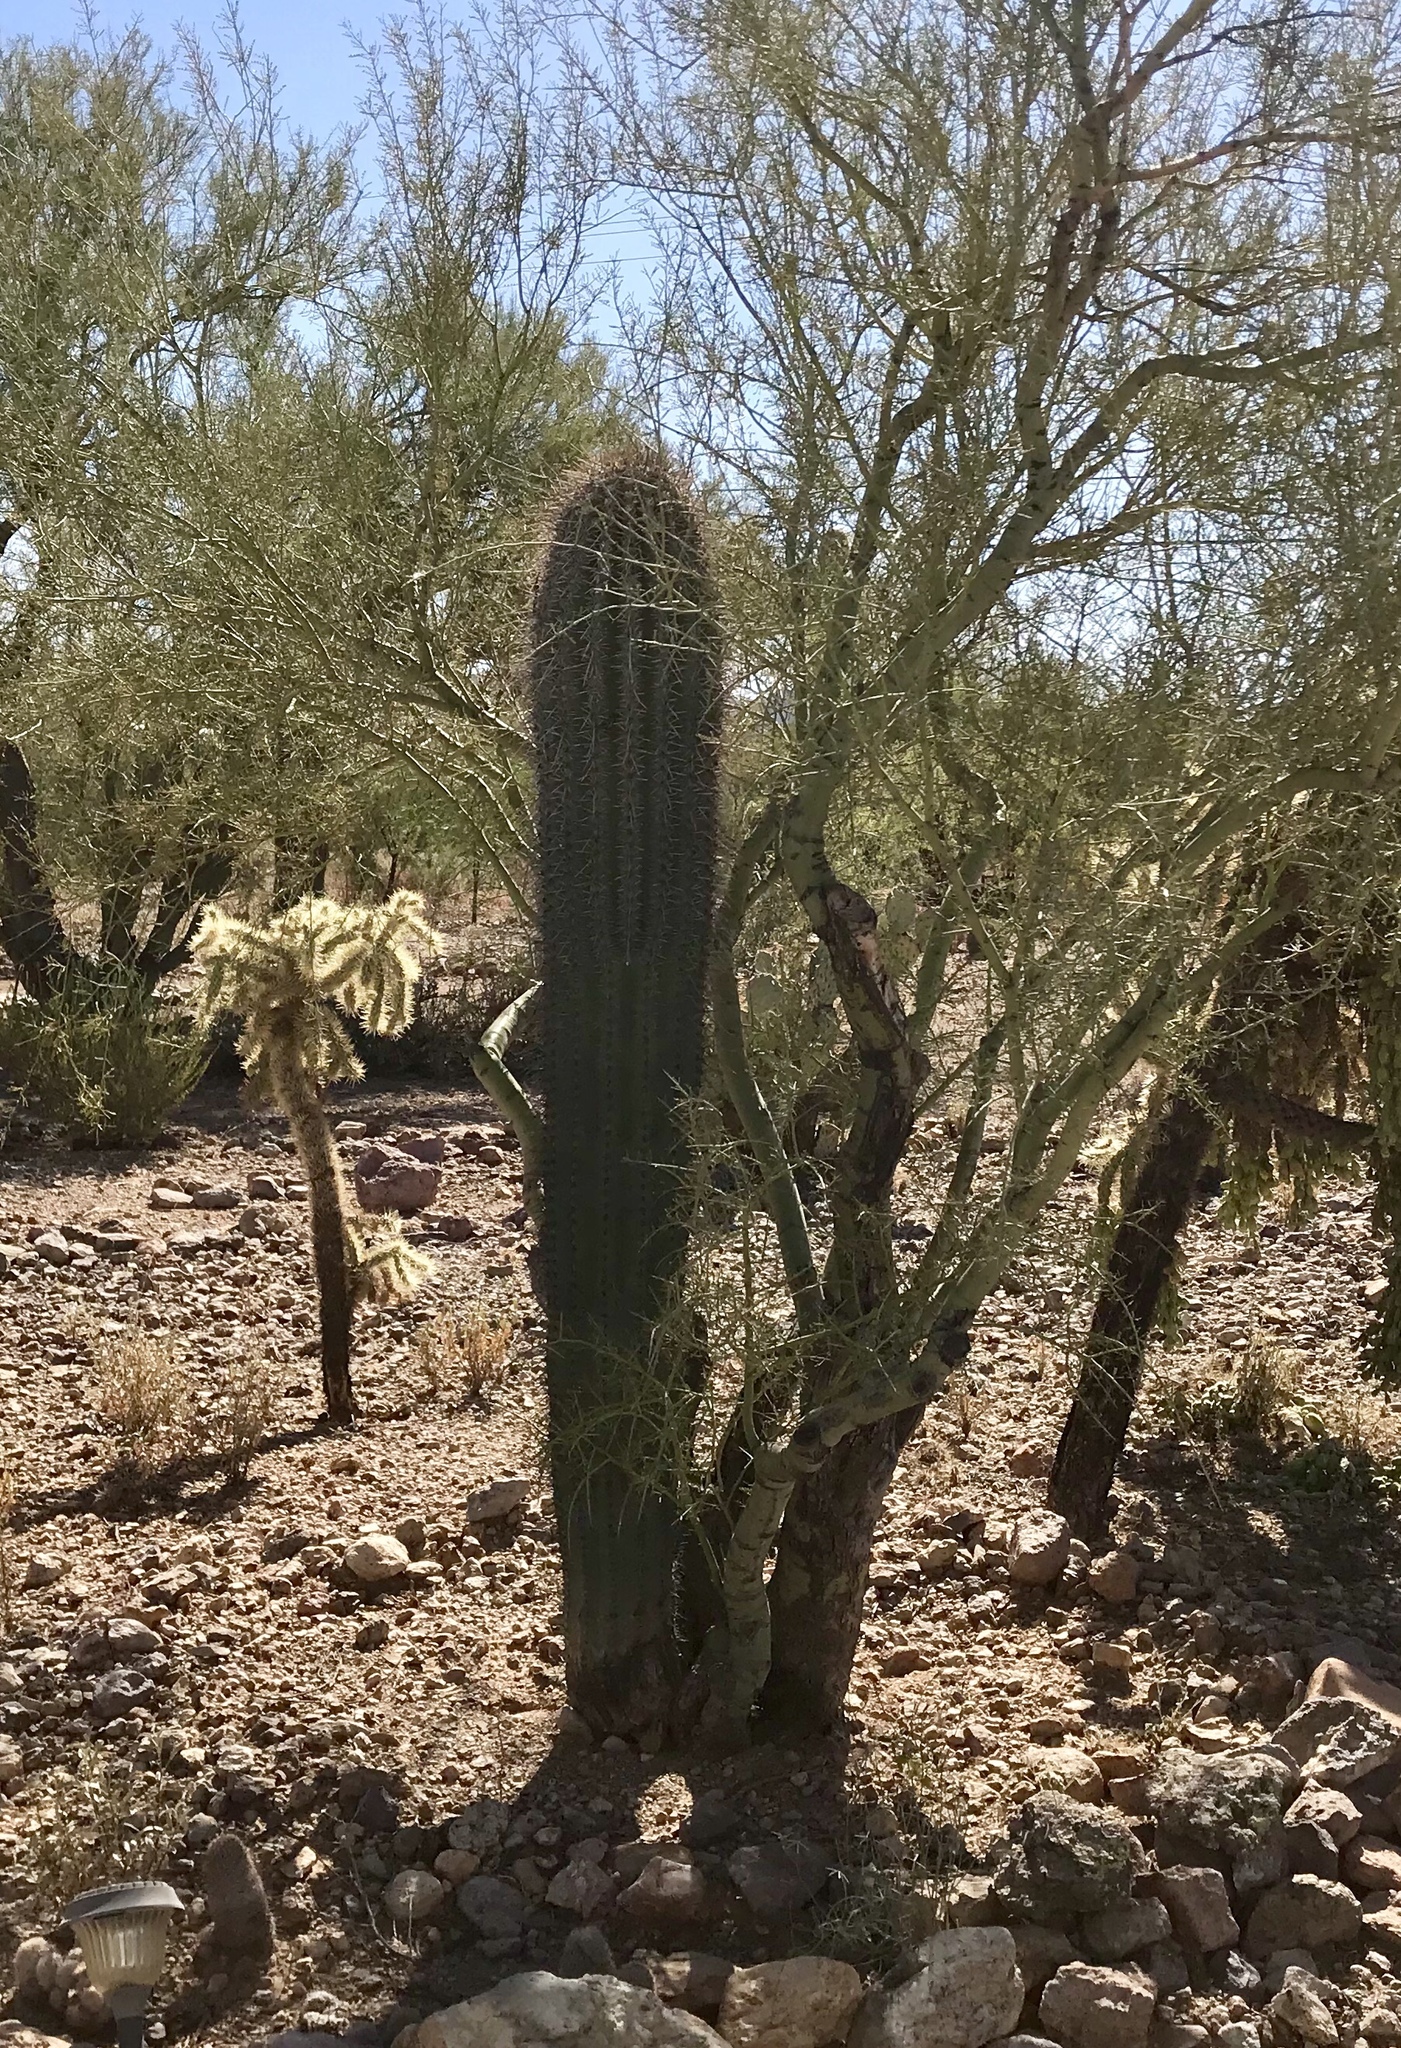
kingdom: Plantae
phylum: Tracheophyta
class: Magnoliopsida
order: Caryophyllales
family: Cactaceae
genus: Carnegiea
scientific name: Carnegiea gigantea
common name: Saguaro
